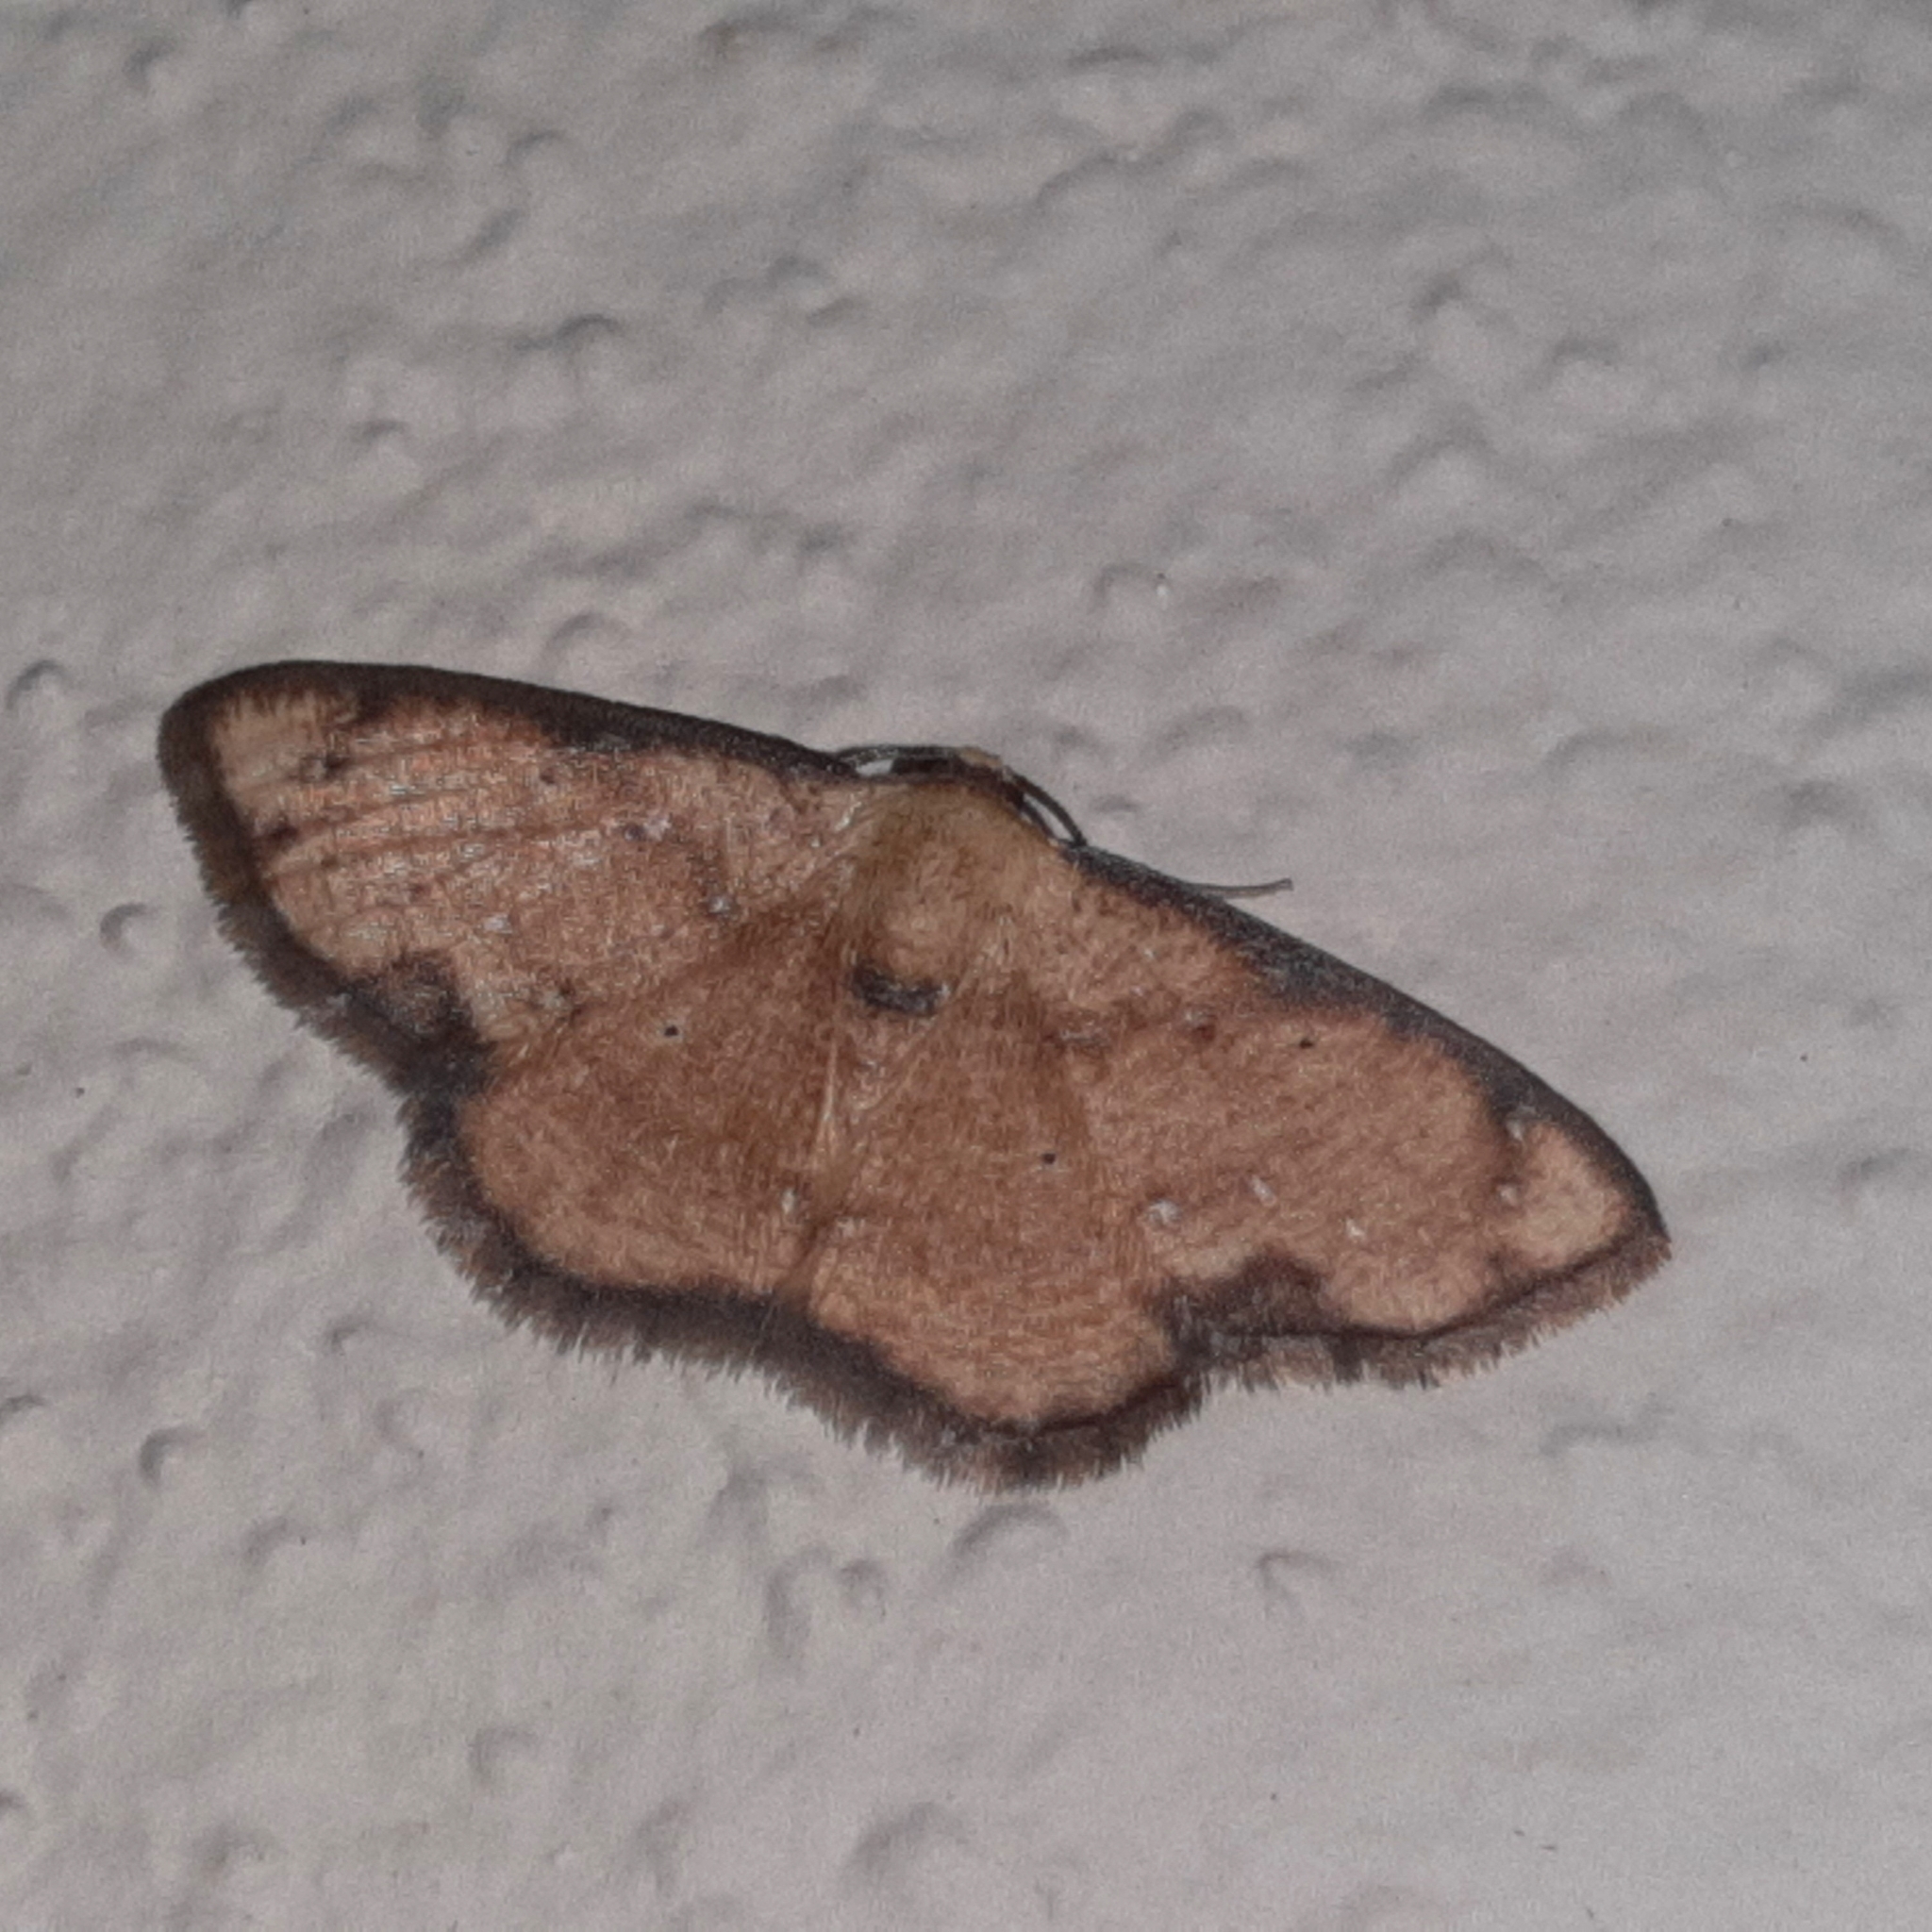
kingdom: Animalia
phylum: Arthropoda
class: Insecta
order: Lepidoptera
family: Geometridae
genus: Nematocampa
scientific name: Nematocampa confusa
